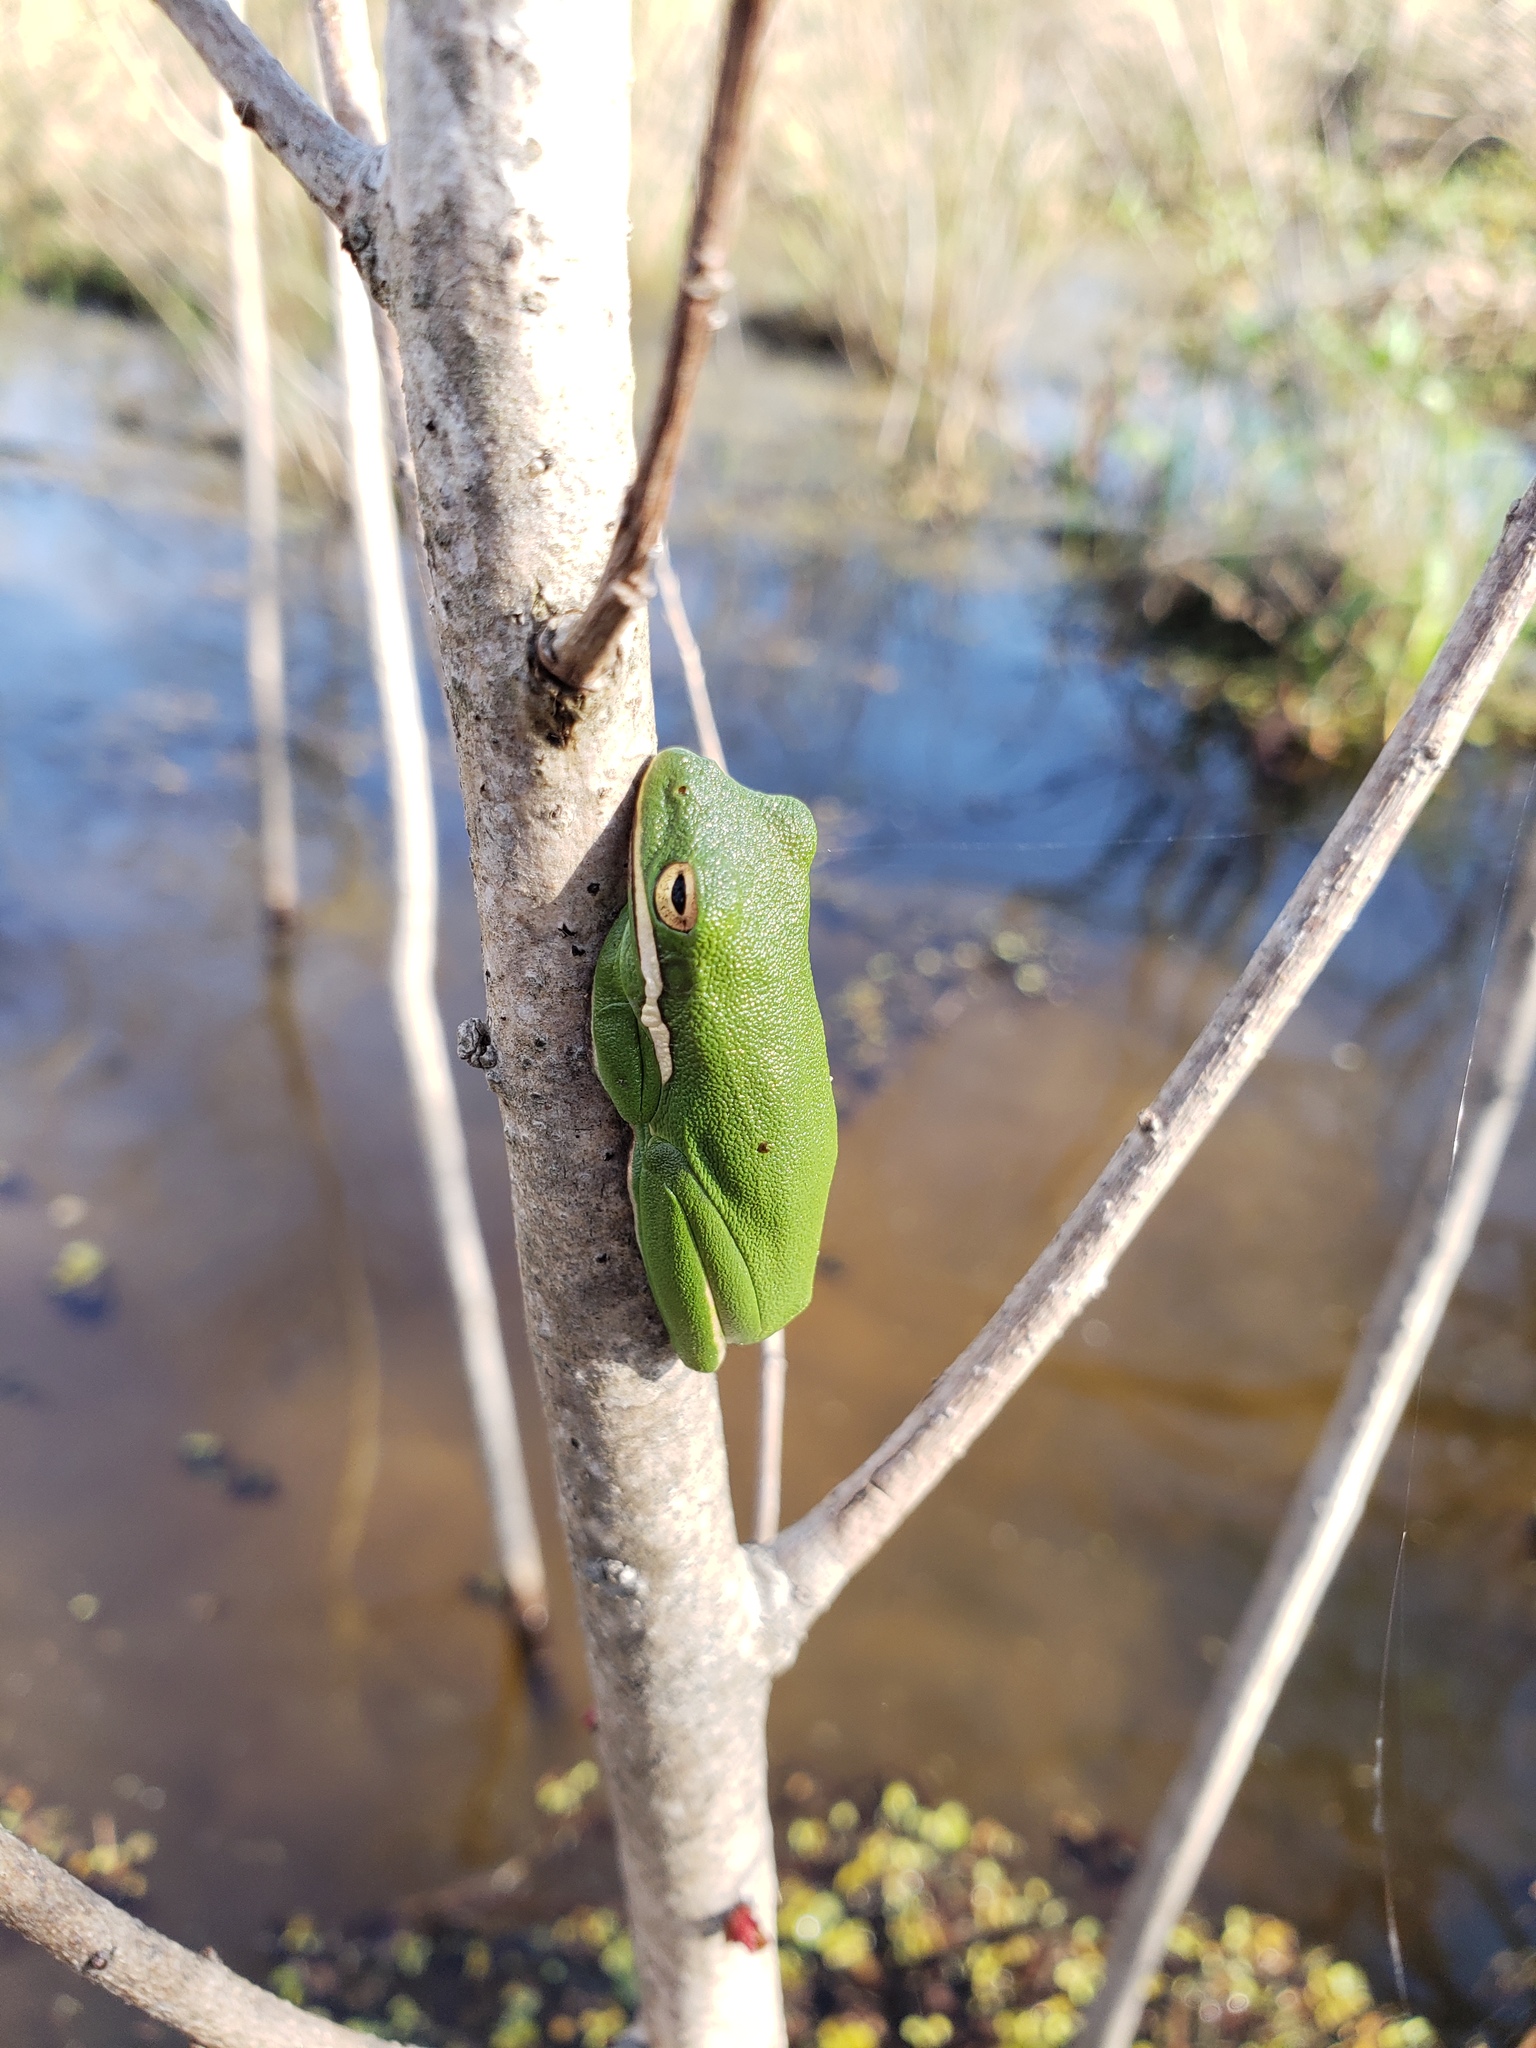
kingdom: Animalia
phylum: Chordata
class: Amphibia
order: Anura
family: Hylidae
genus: Dryophytes
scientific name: Dryophytes cinereus
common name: Green treefrog
